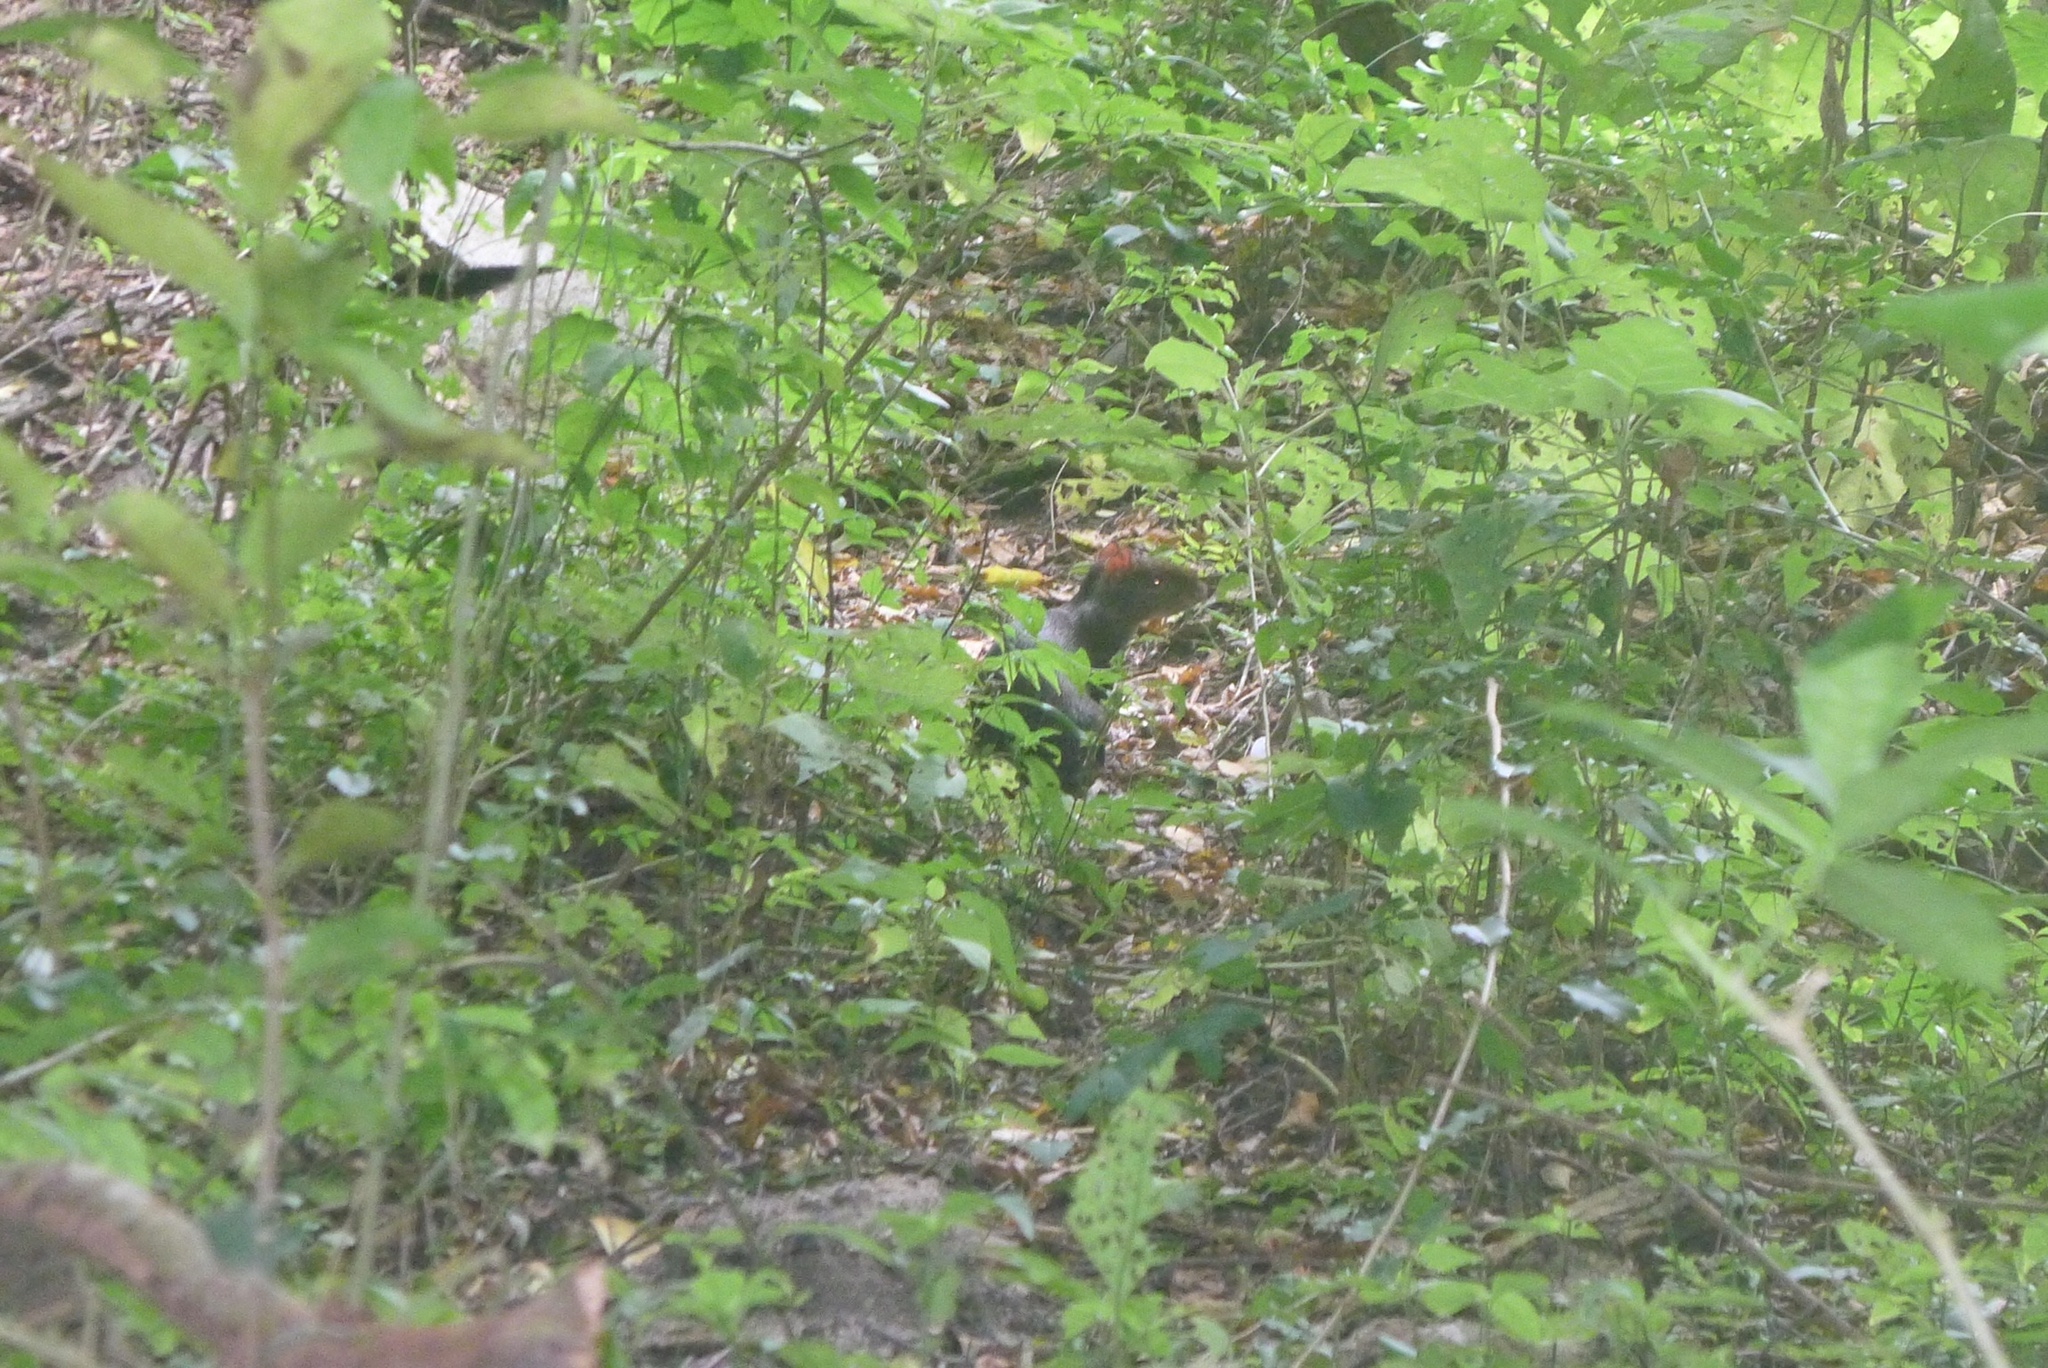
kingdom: Animalia
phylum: Chordata
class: Mammalia
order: Rodentia
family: Dasyproctidae
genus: Dasyprocta
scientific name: Dasyprocta punctata
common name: Central american agouti
